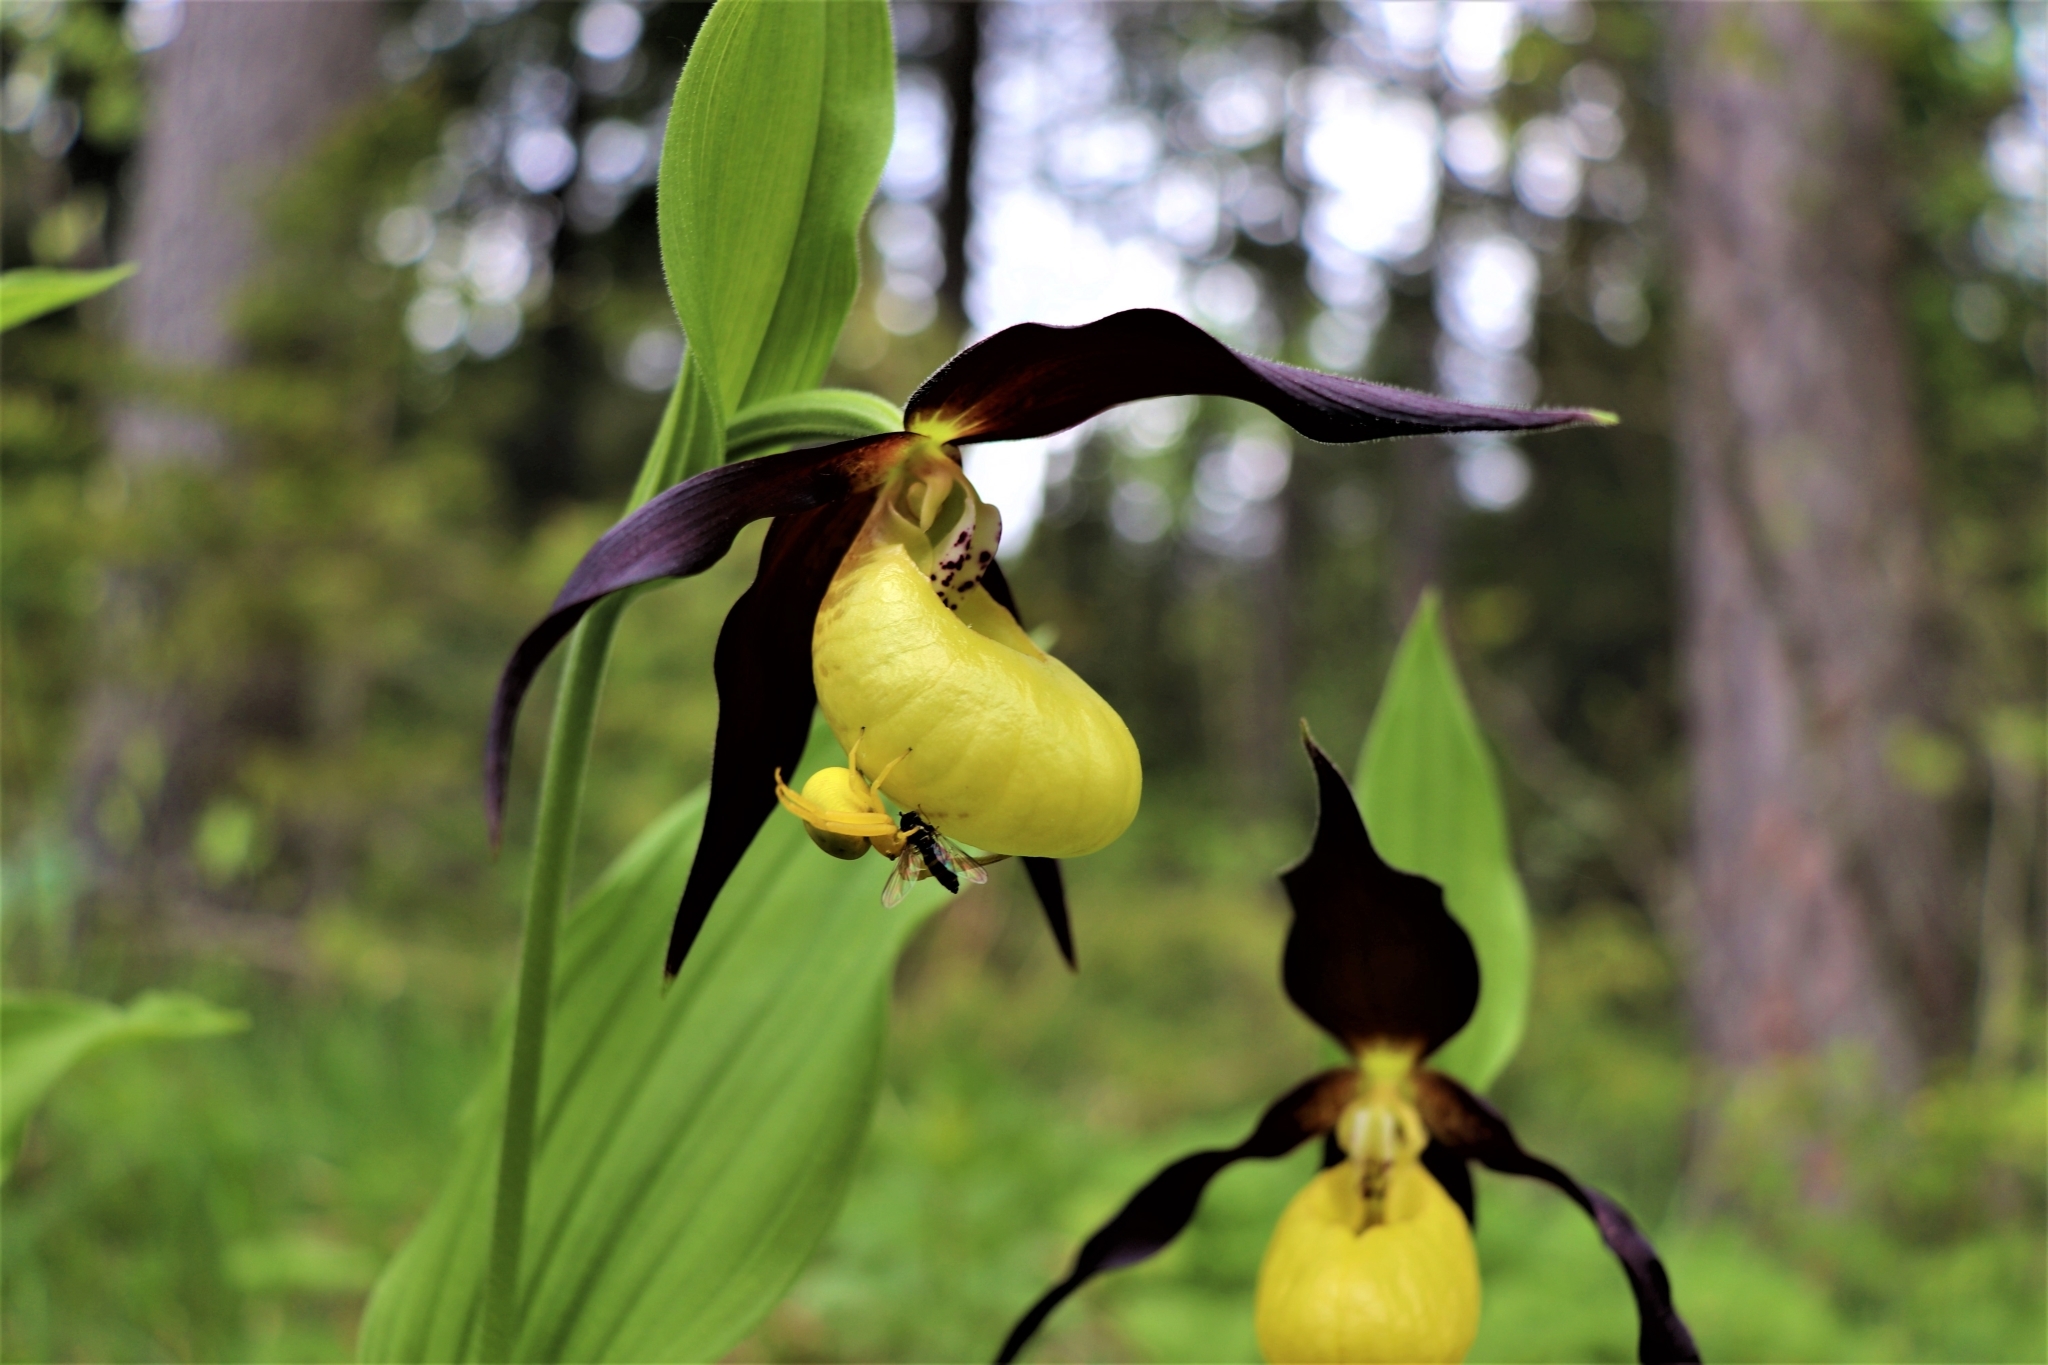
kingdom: Plantae
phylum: Tracheophyta
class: Liliopsida
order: Asparagales
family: Orchidaceae
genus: Cypripedium
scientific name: Cypripedium calceolus
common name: Lady's-slipper
